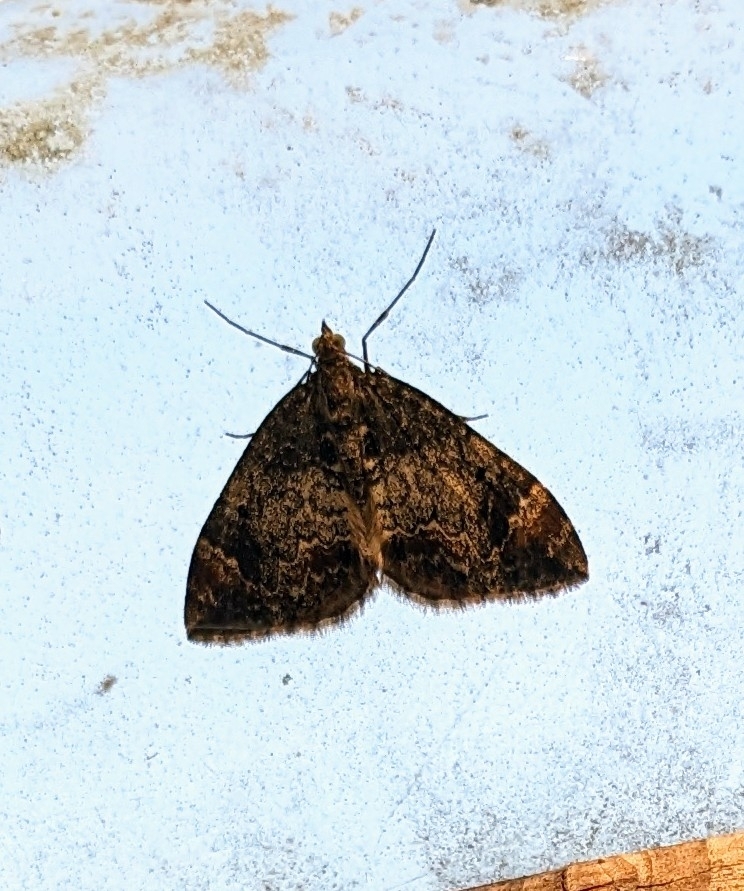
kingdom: Animalia
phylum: Arthropoda
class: Insecta
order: Lepidoptera
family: Geometridae
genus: Dysstroma
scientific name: Dysstroma truncata
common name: Common marbled carpet
